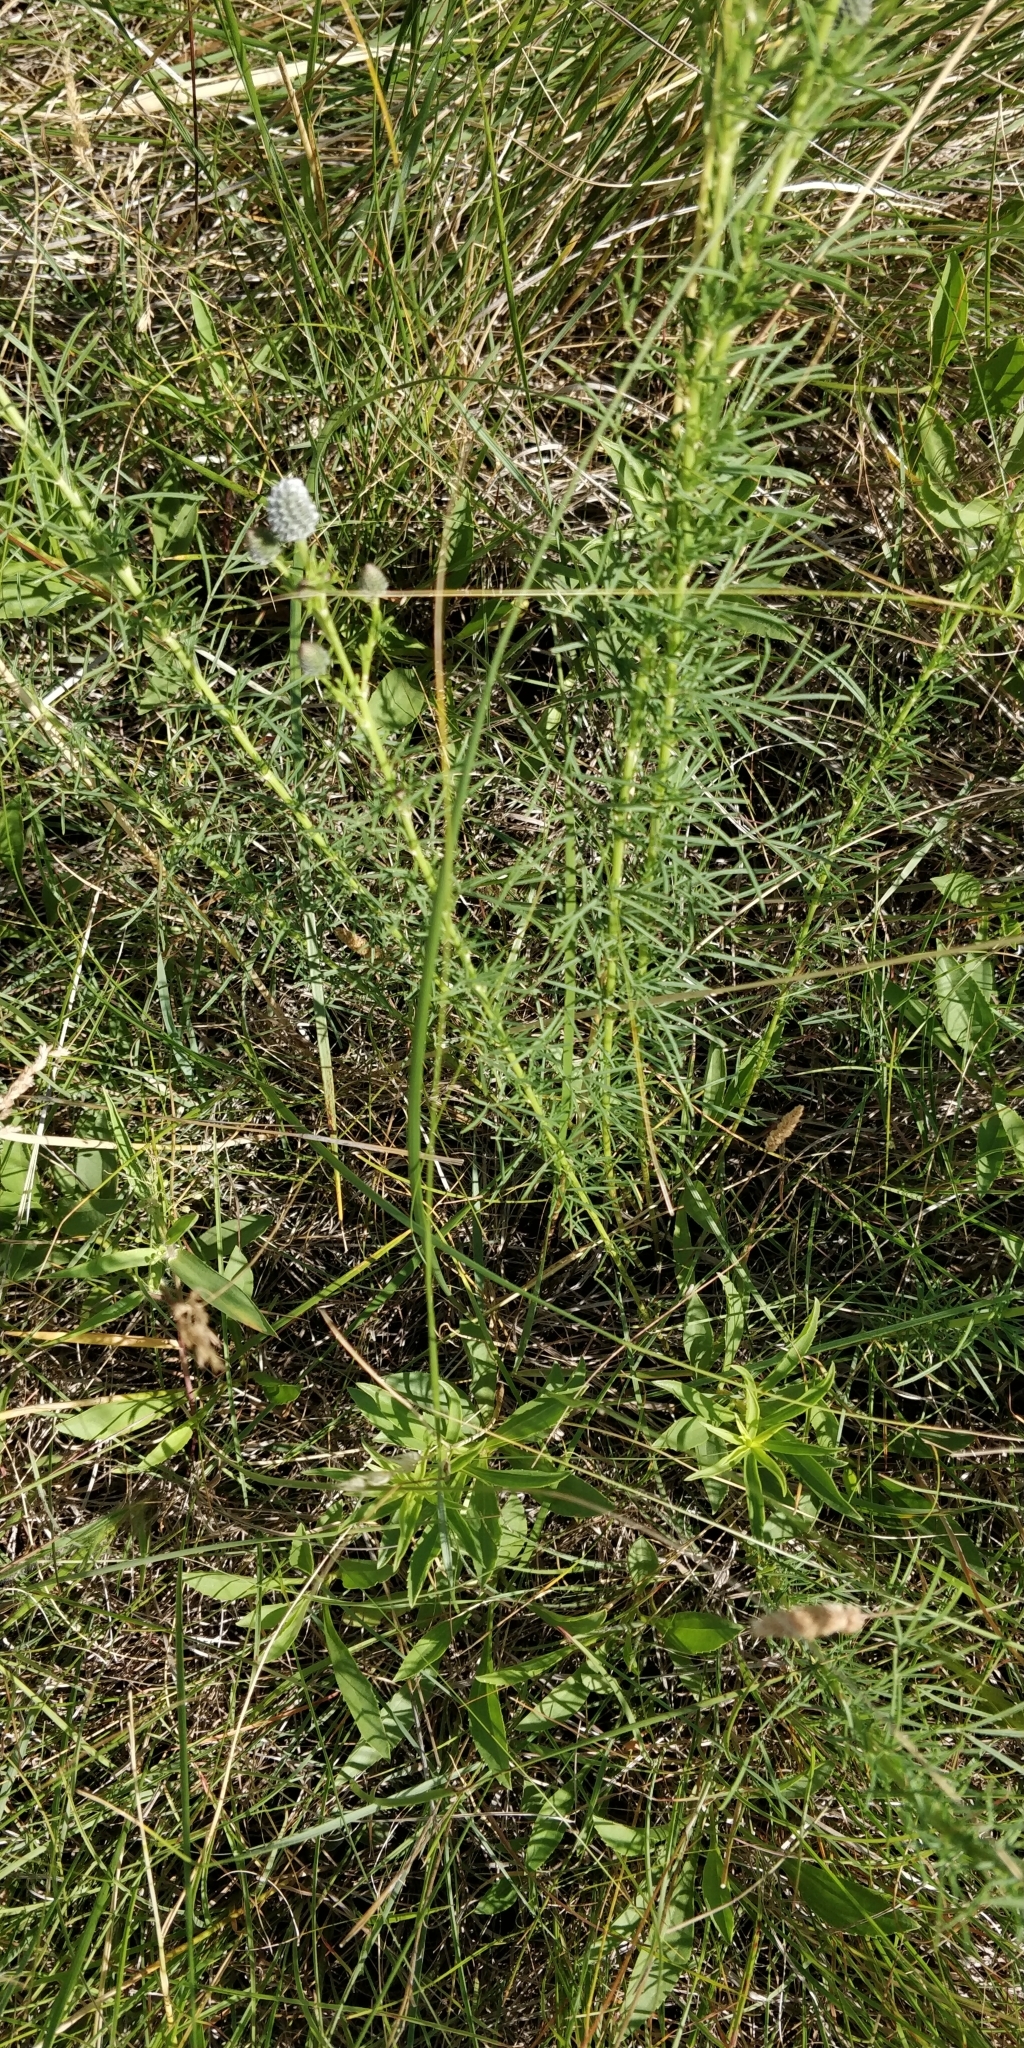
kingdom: Plantae
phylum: Tracheophyta
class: Magnoliopsida
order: Fabales
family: Fabaceae
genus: Dalea
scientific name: Dalea purpurea
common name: Purple prairie-clover
